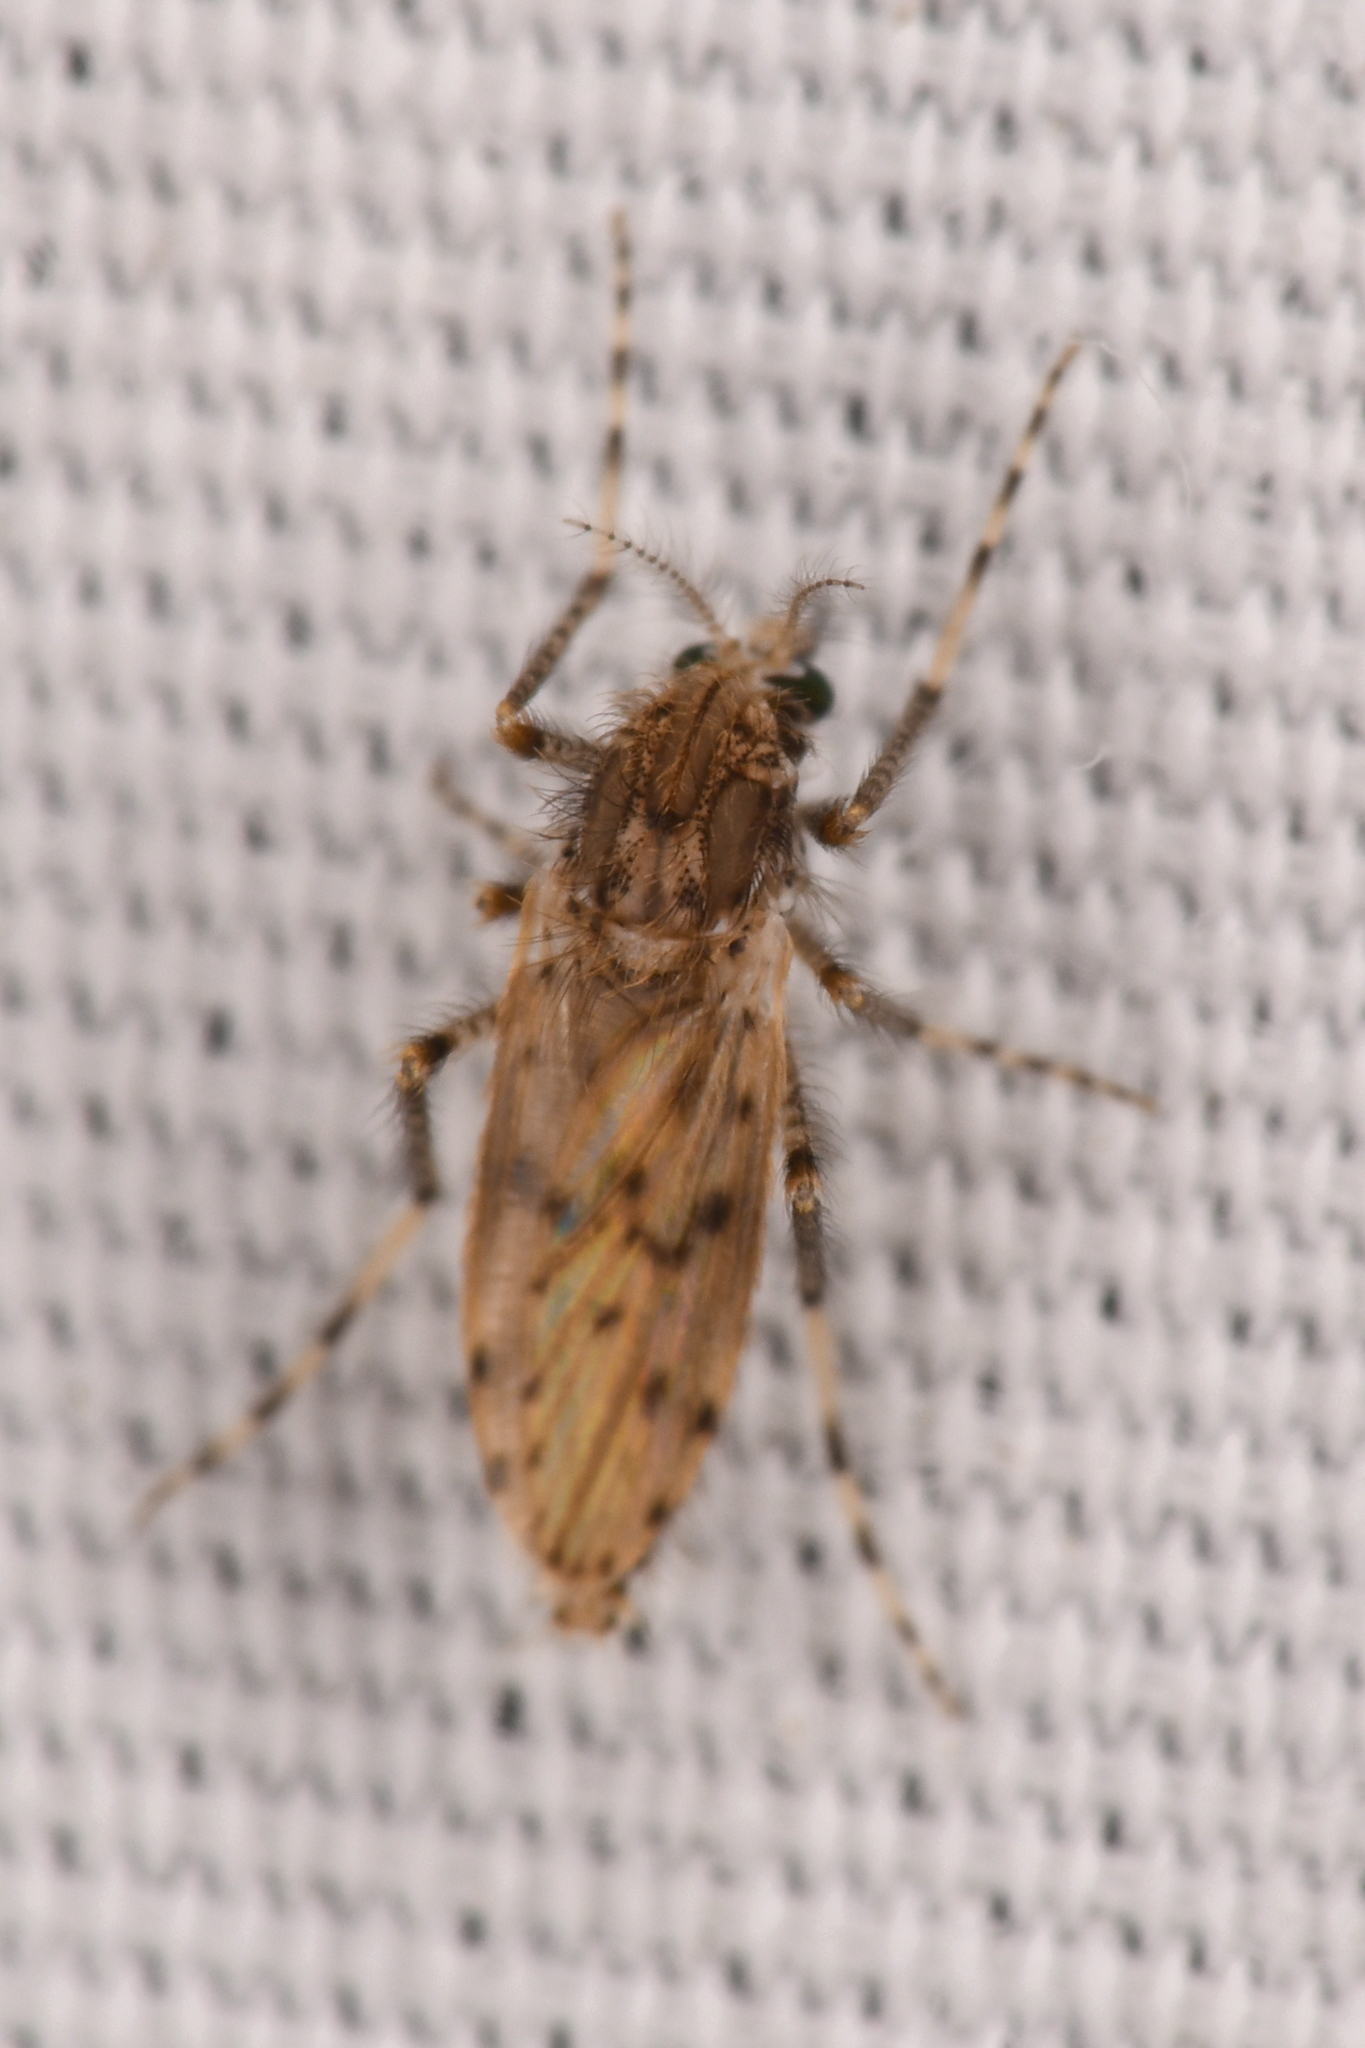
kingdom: Animalia
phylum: Arthropoda
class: Insecta
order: Diptera
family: Chaoboridae
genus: Chaoborus
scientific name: Chaoborus punctipennis
